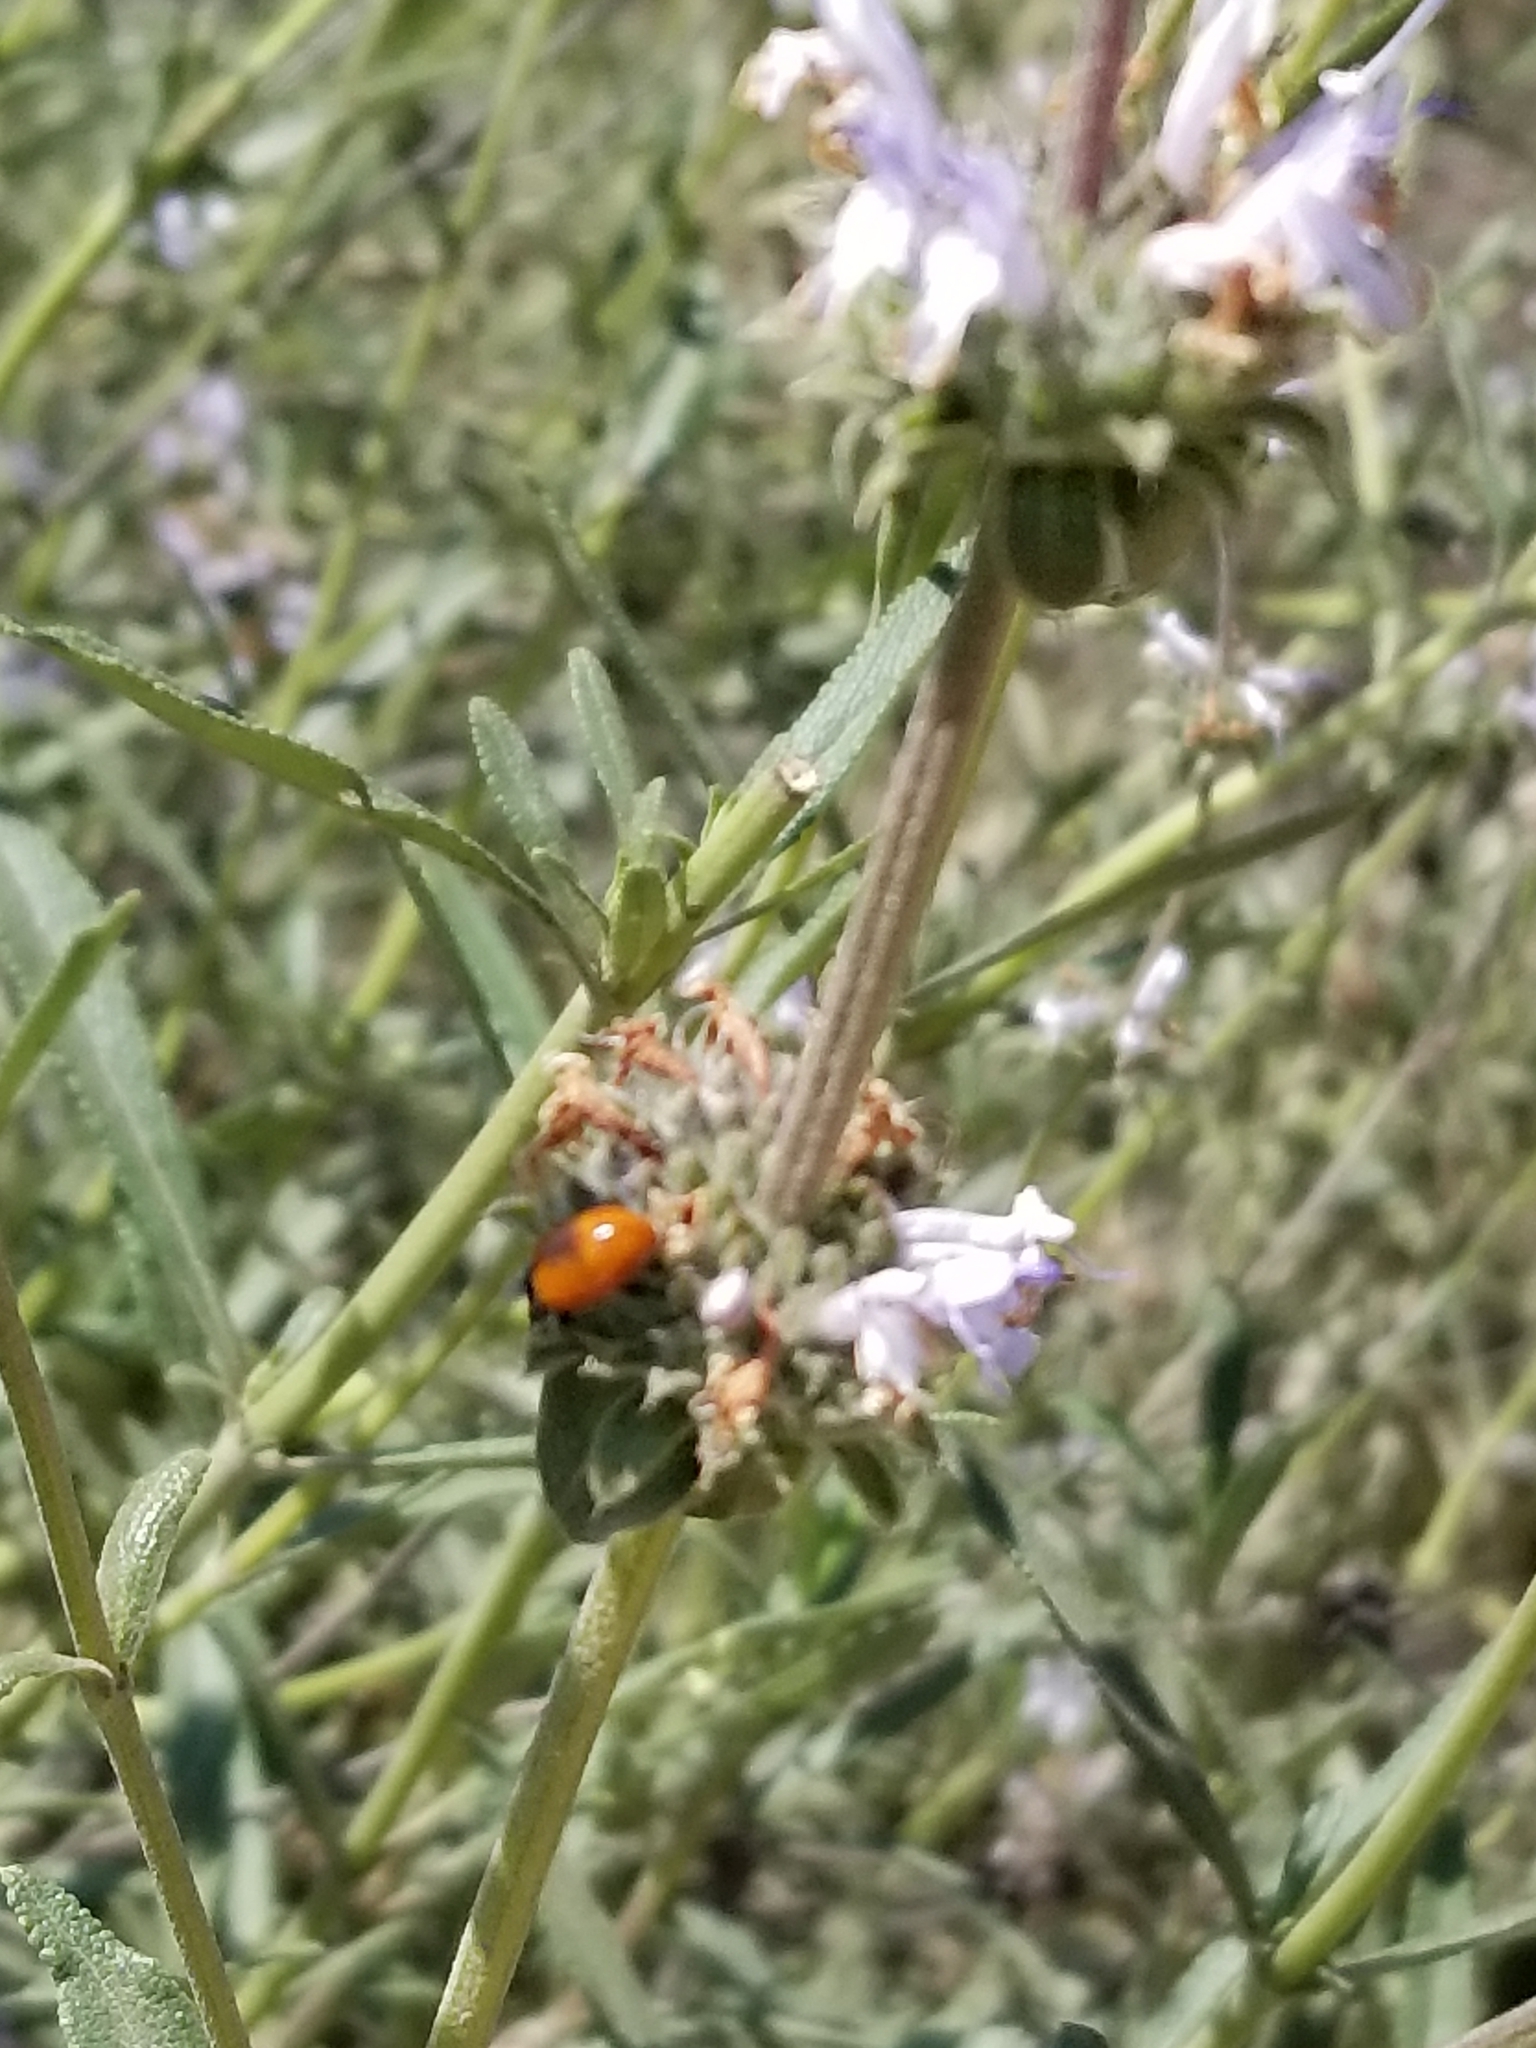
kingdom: Animalia
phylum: Arthropoda
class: Insecta
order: Coleoptera
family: Coccinellidae
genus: Cycloneda
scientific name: Cycloneda sanguinea
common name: Ladybird beetle
